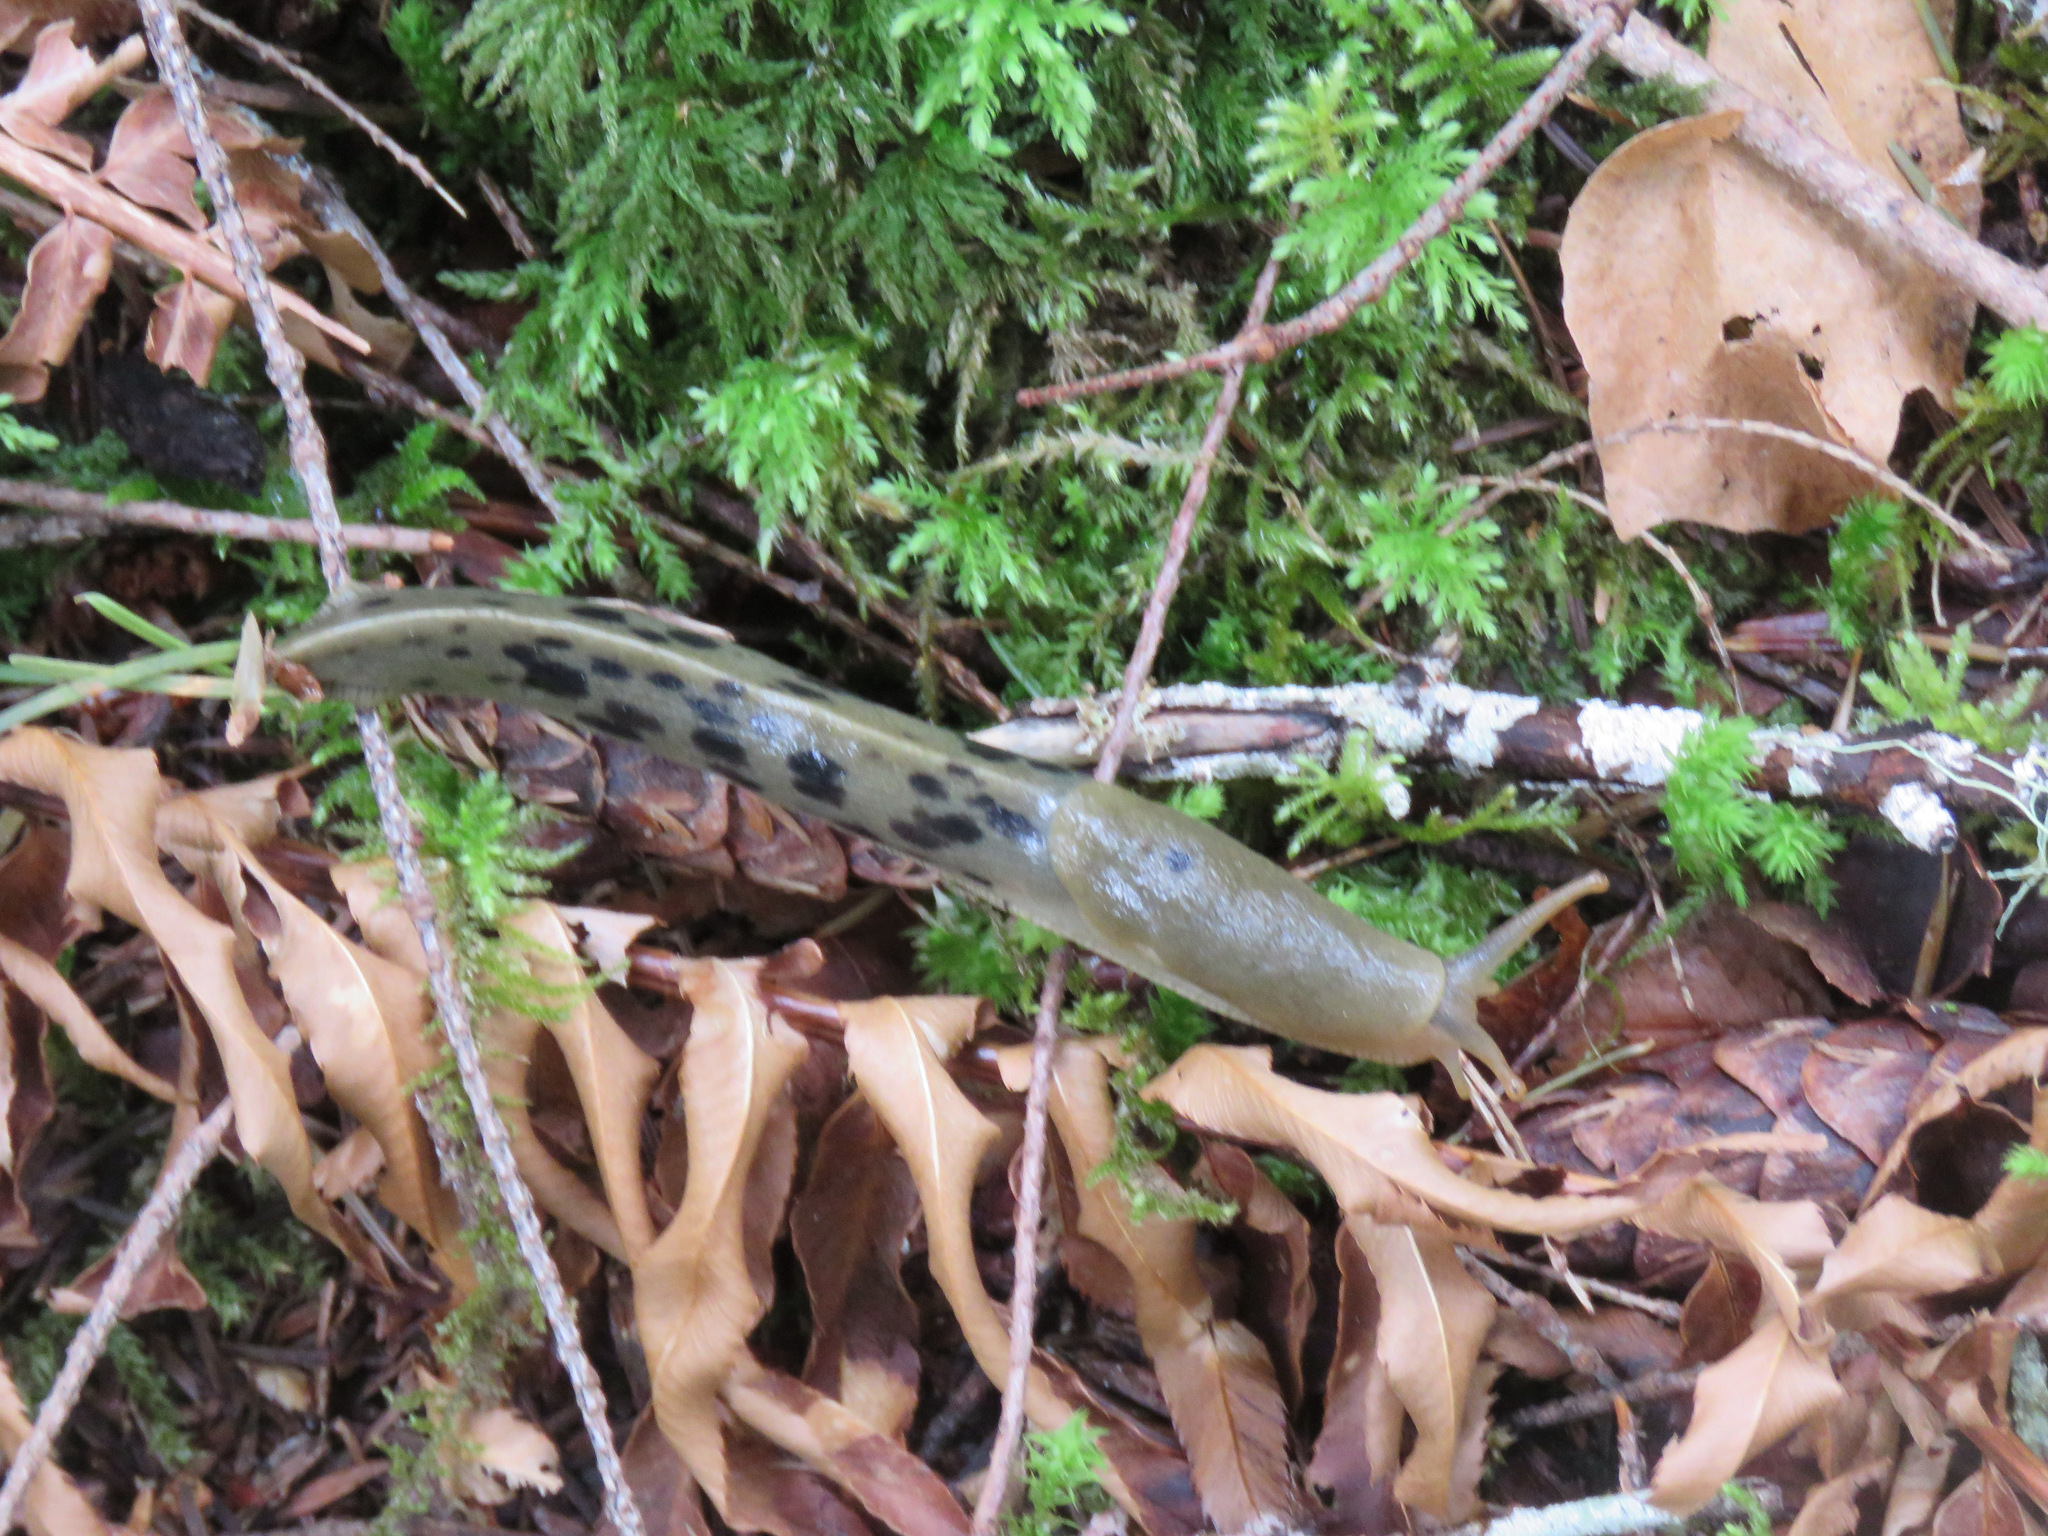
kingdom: Animalia
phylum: Mollusca
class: Gastropoda
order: Stylommatophora
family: Ariolimacidae
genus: Ariolimax
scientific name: Ariolimax columbianus
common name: Pacific banana slug
